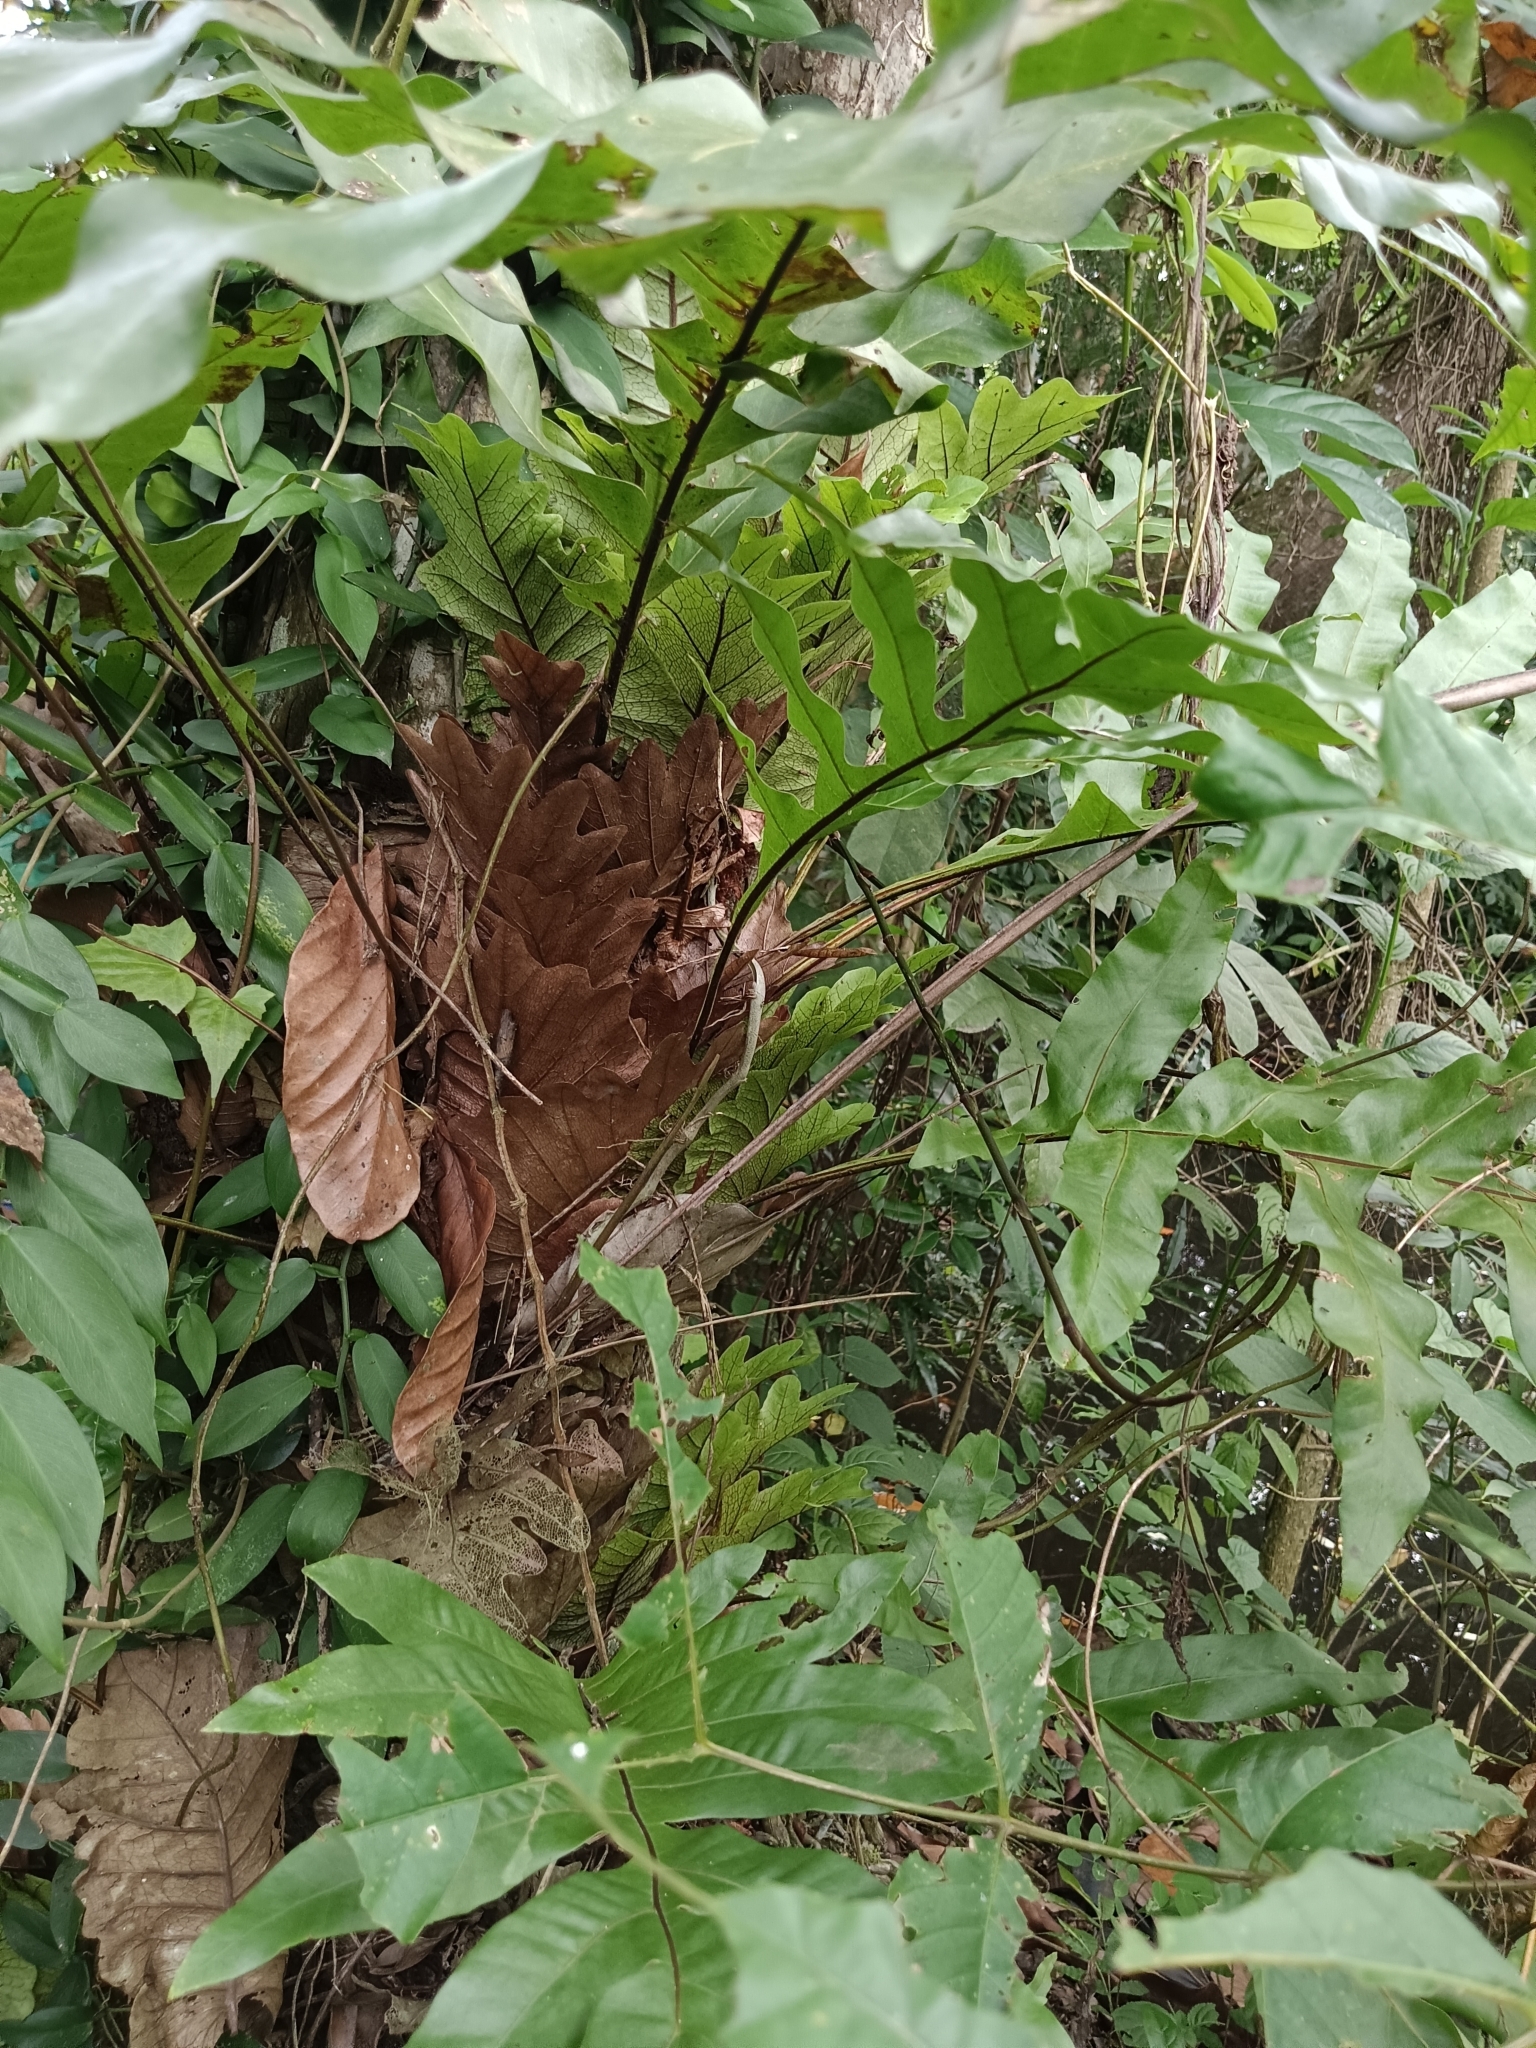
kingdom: Plantae
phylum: Tracheophyta
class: Polypodiopsida
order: Polypodiales
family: Polypodiaceae
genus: Drynaria
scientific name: Drynaria quercifolia
